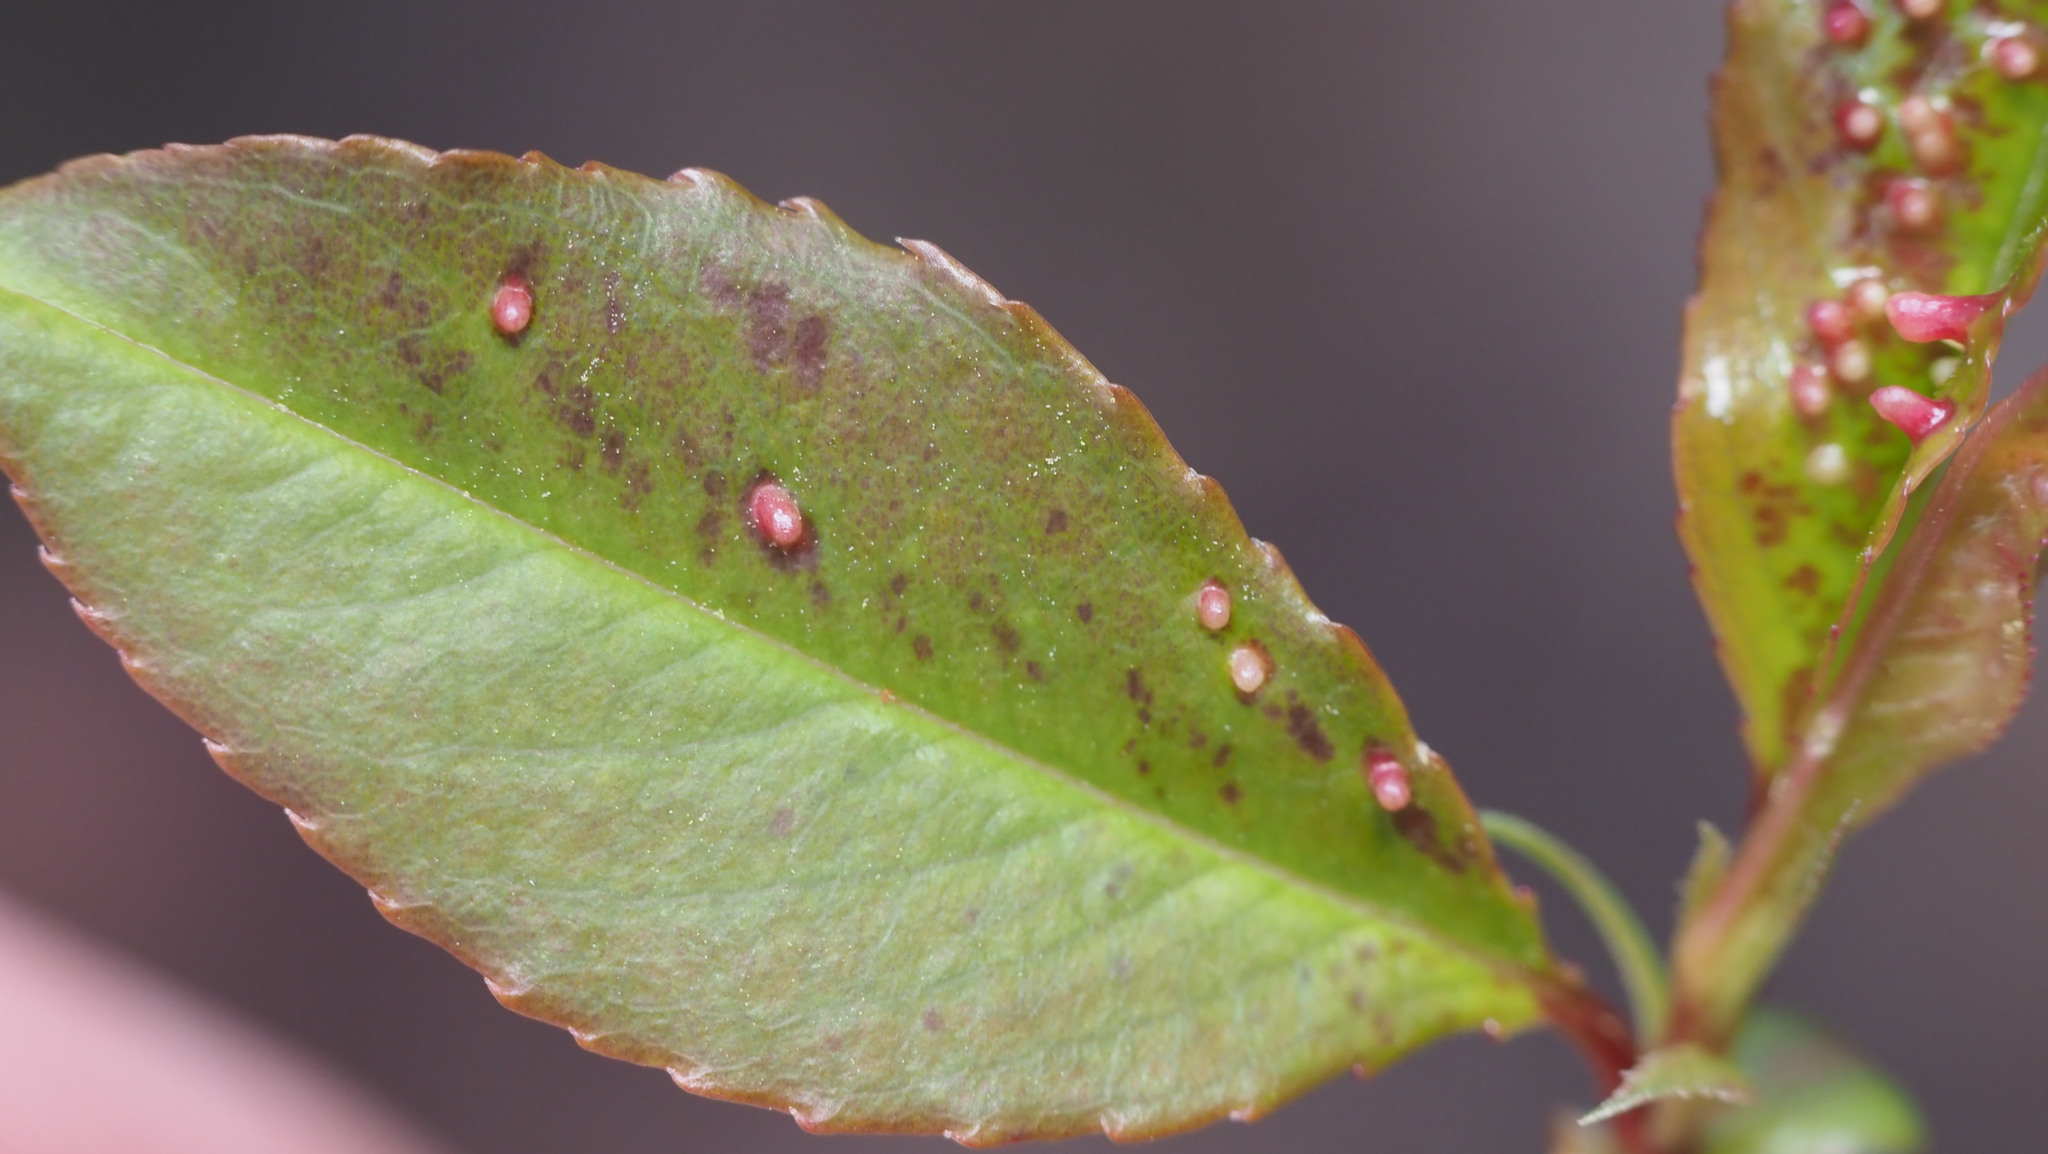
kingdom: Animalia
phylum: Arthropoda
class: Arachnida
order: Trombidiformes
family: Eriophyidae
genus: Eriophyes
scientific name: Eriophyes
